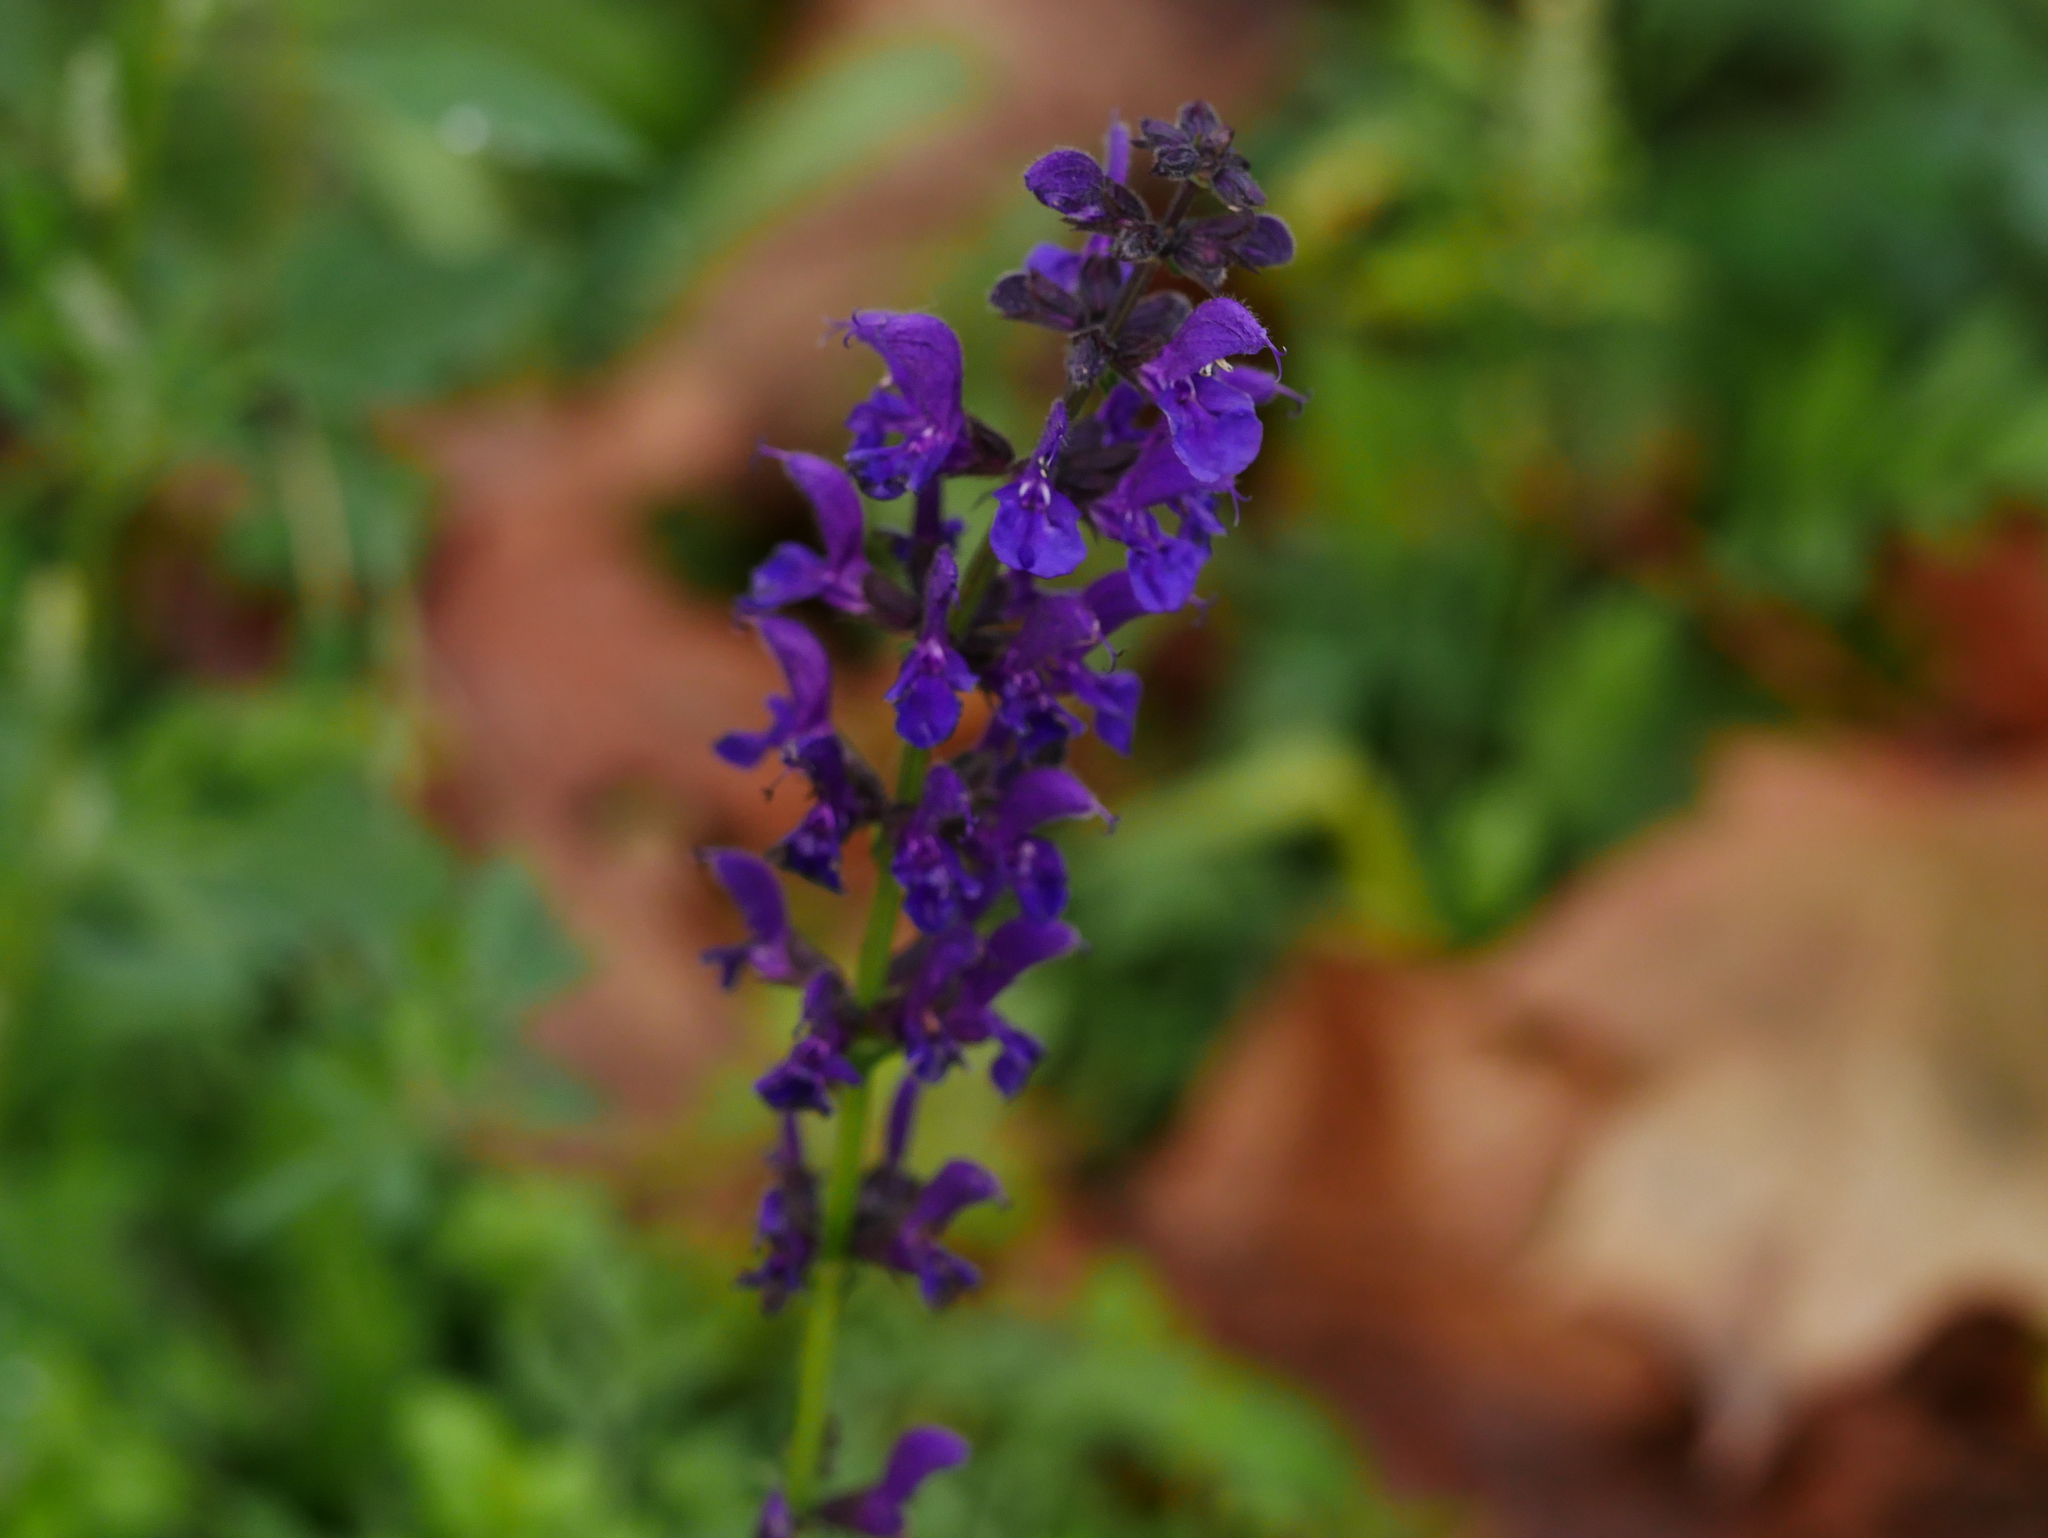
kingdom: Plantae
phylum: Tracheophyta
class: Magnoliopsida
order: Lamiales
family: Lamiaceae
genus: Salvia
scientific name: Salvia pratensis
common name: Meadow sage
